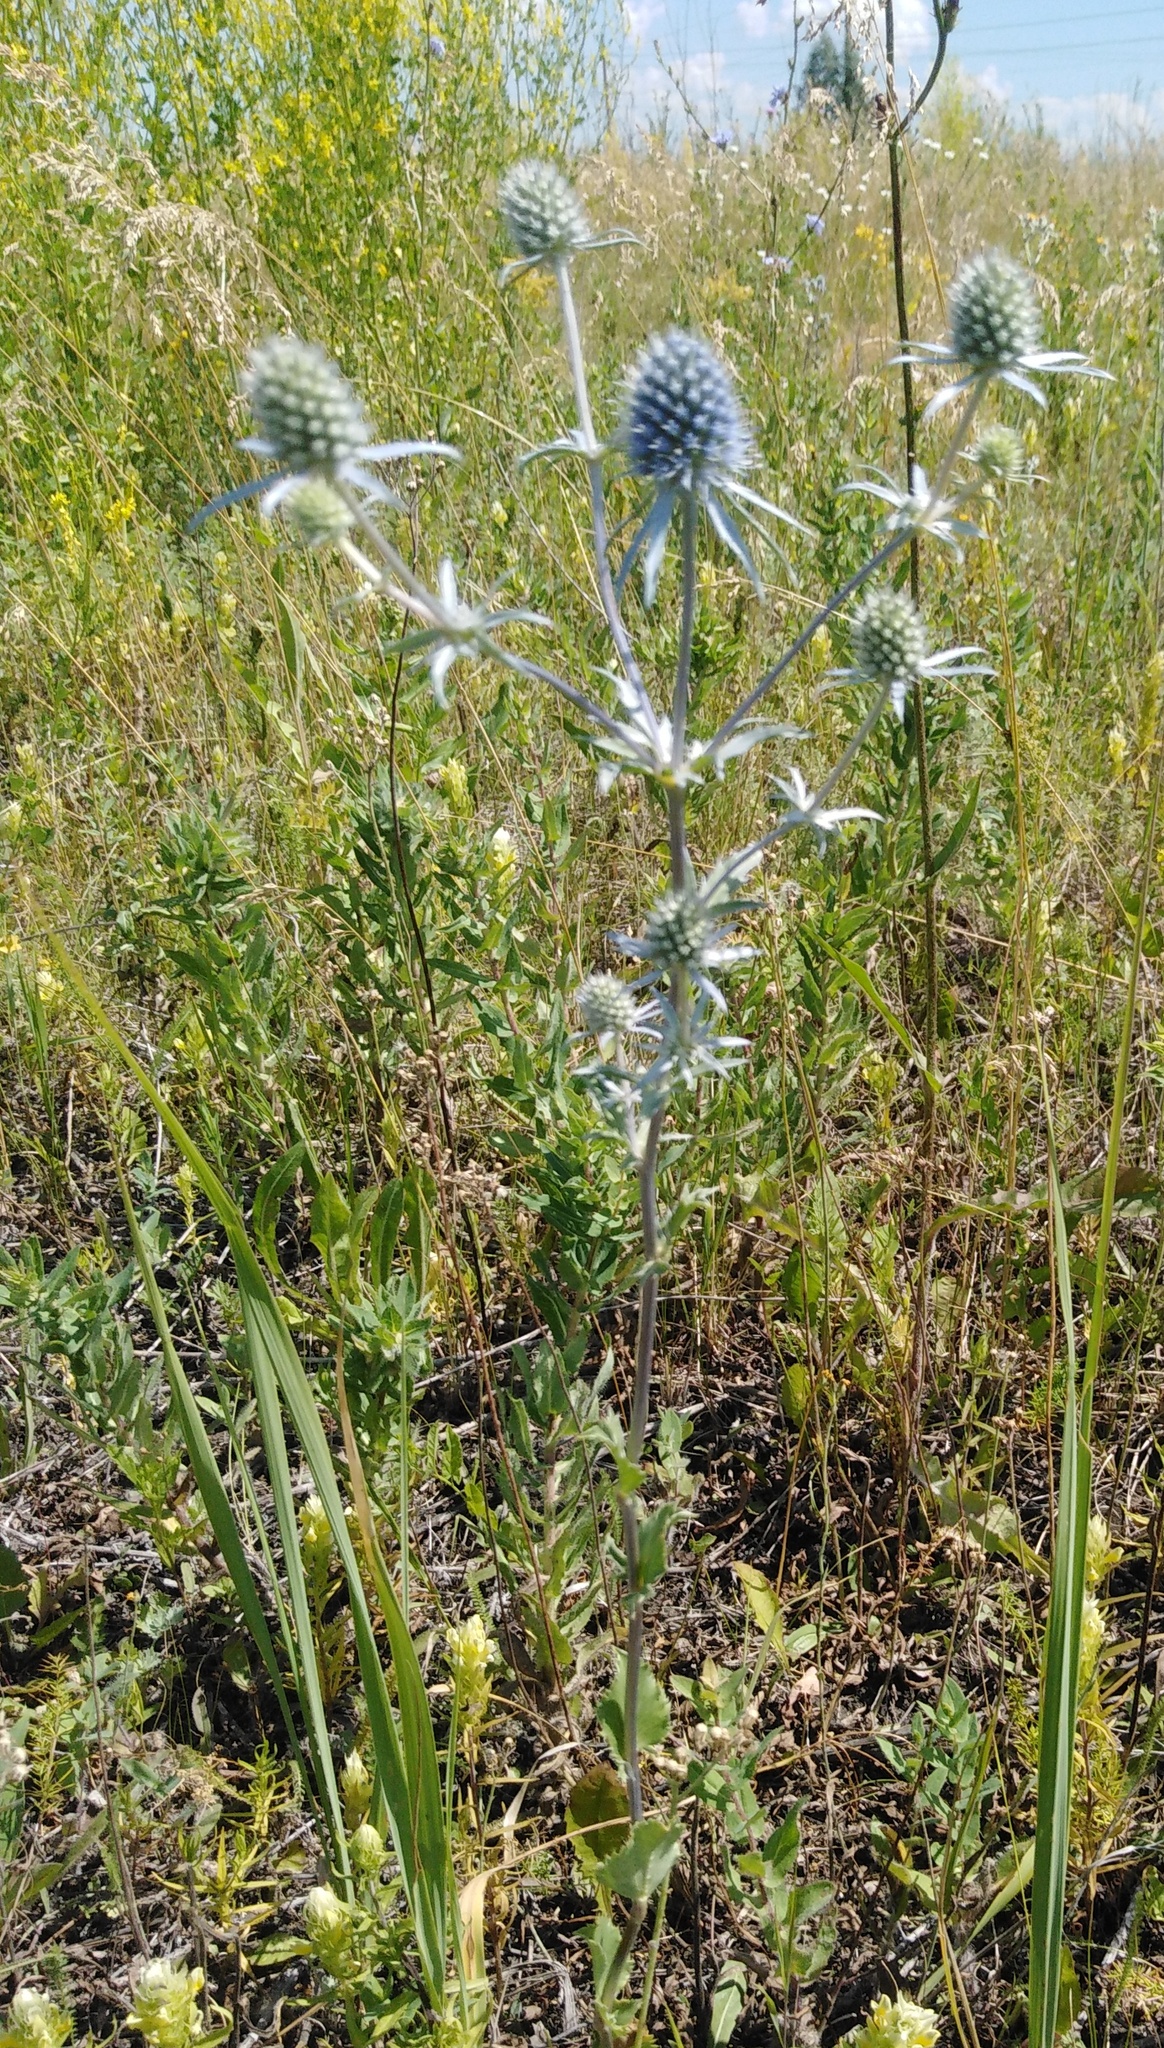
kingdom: Plantae
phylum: Tracheophyta
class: Magnoliopsida
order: Apiales
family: Apiaceae
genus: Eryngium
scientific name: Eryngium planum
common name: Blue eryngo
